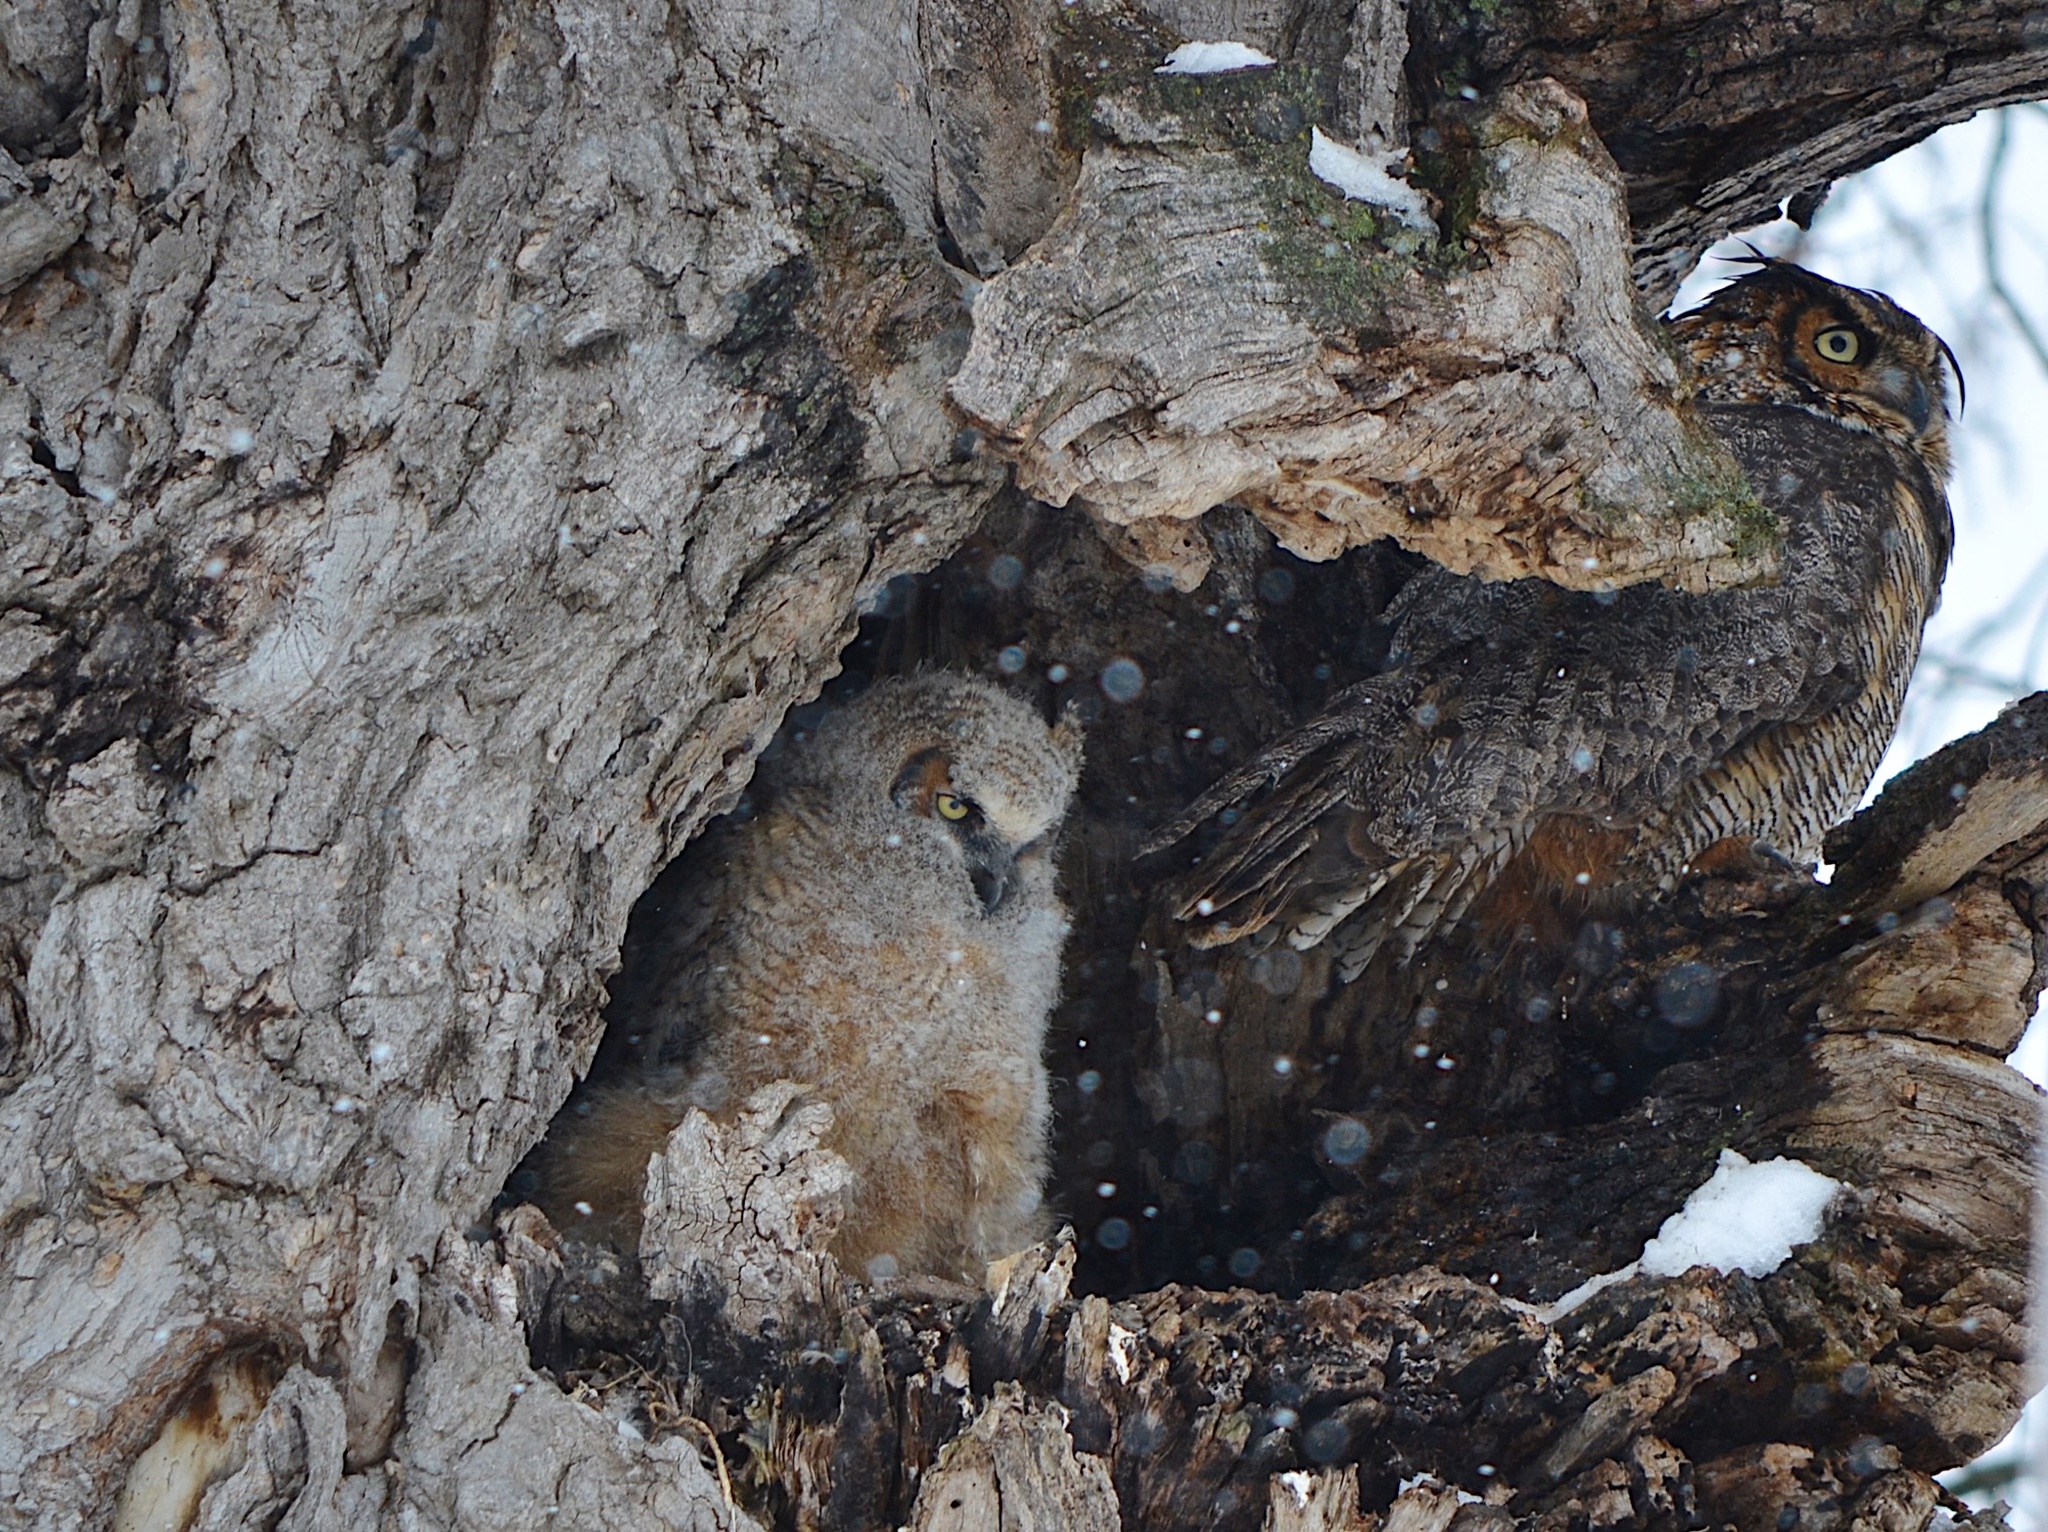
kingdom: Animalia
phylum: Chordata
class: Aves
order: Strigiformes
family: Strigidae
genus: Bubo
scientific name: Bubo virginianus
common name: Great horned owl
